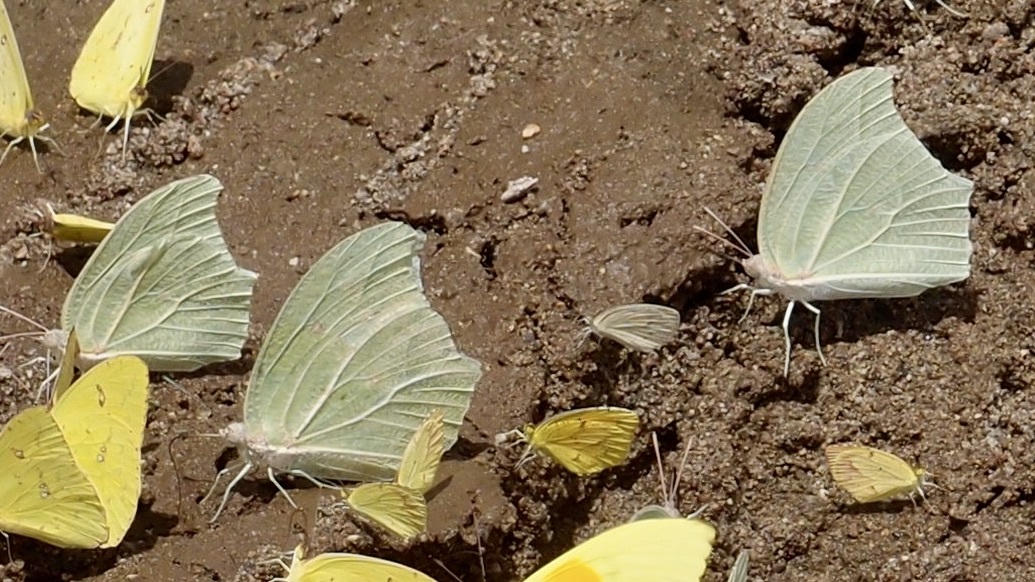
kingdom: Animalia
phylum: Arthropoda
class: Insecta
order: Lepidoptera
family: Pieridae
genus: Anteos
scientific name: Anteos clorinde
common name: White angled sulphur
